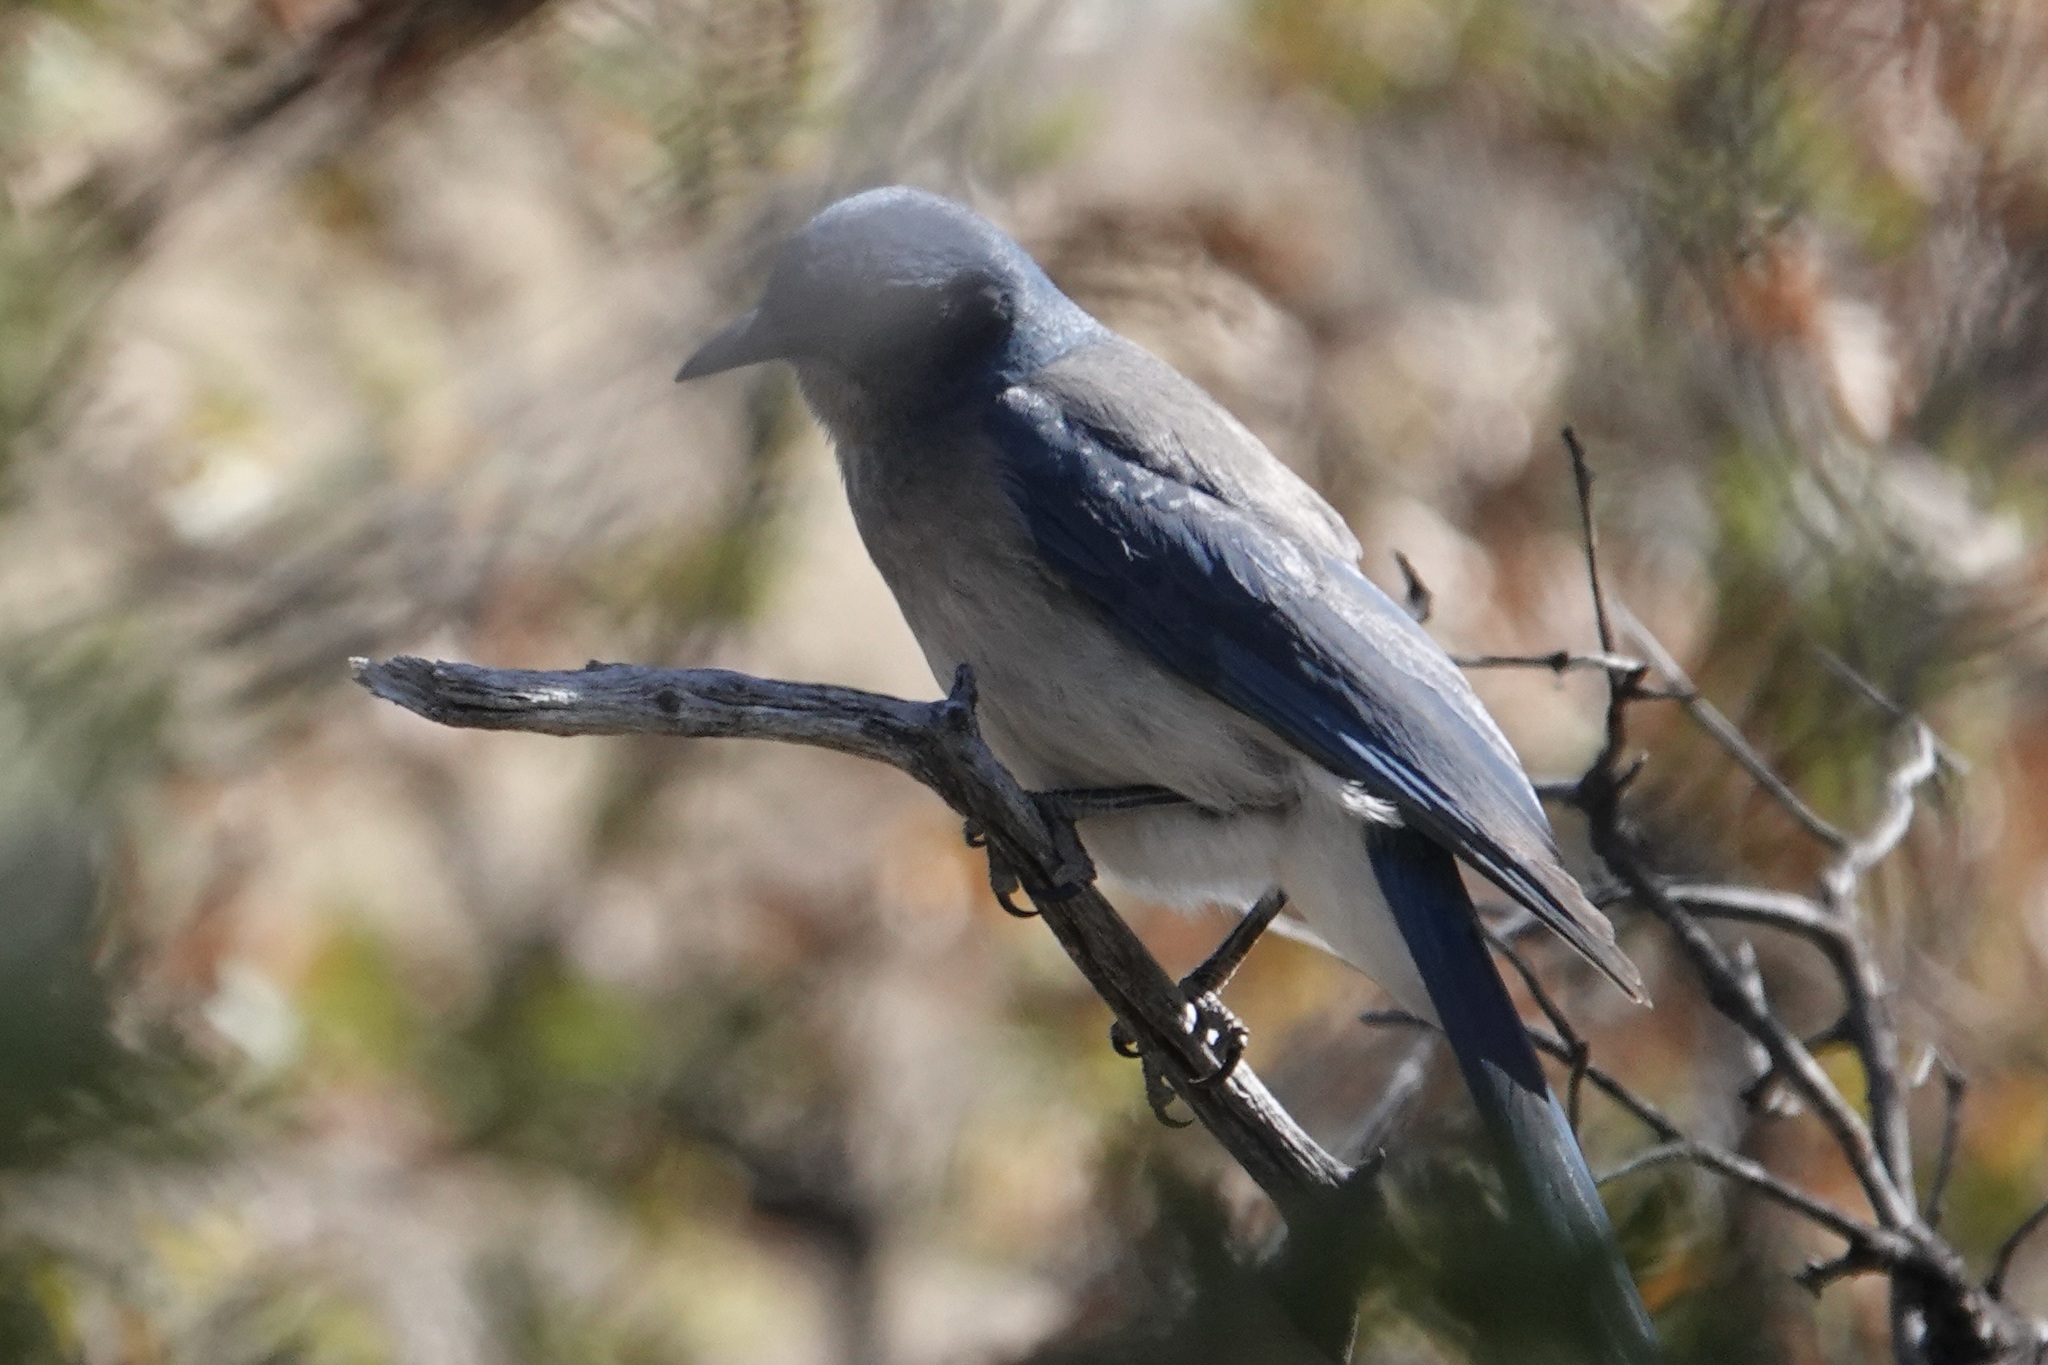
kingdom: Animalia
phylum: Chordata
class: Aves
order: Passeriformes
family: Corvidae
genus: Aphelocoma
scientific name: Aphelocoma wollweberi
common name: Mexican jay
